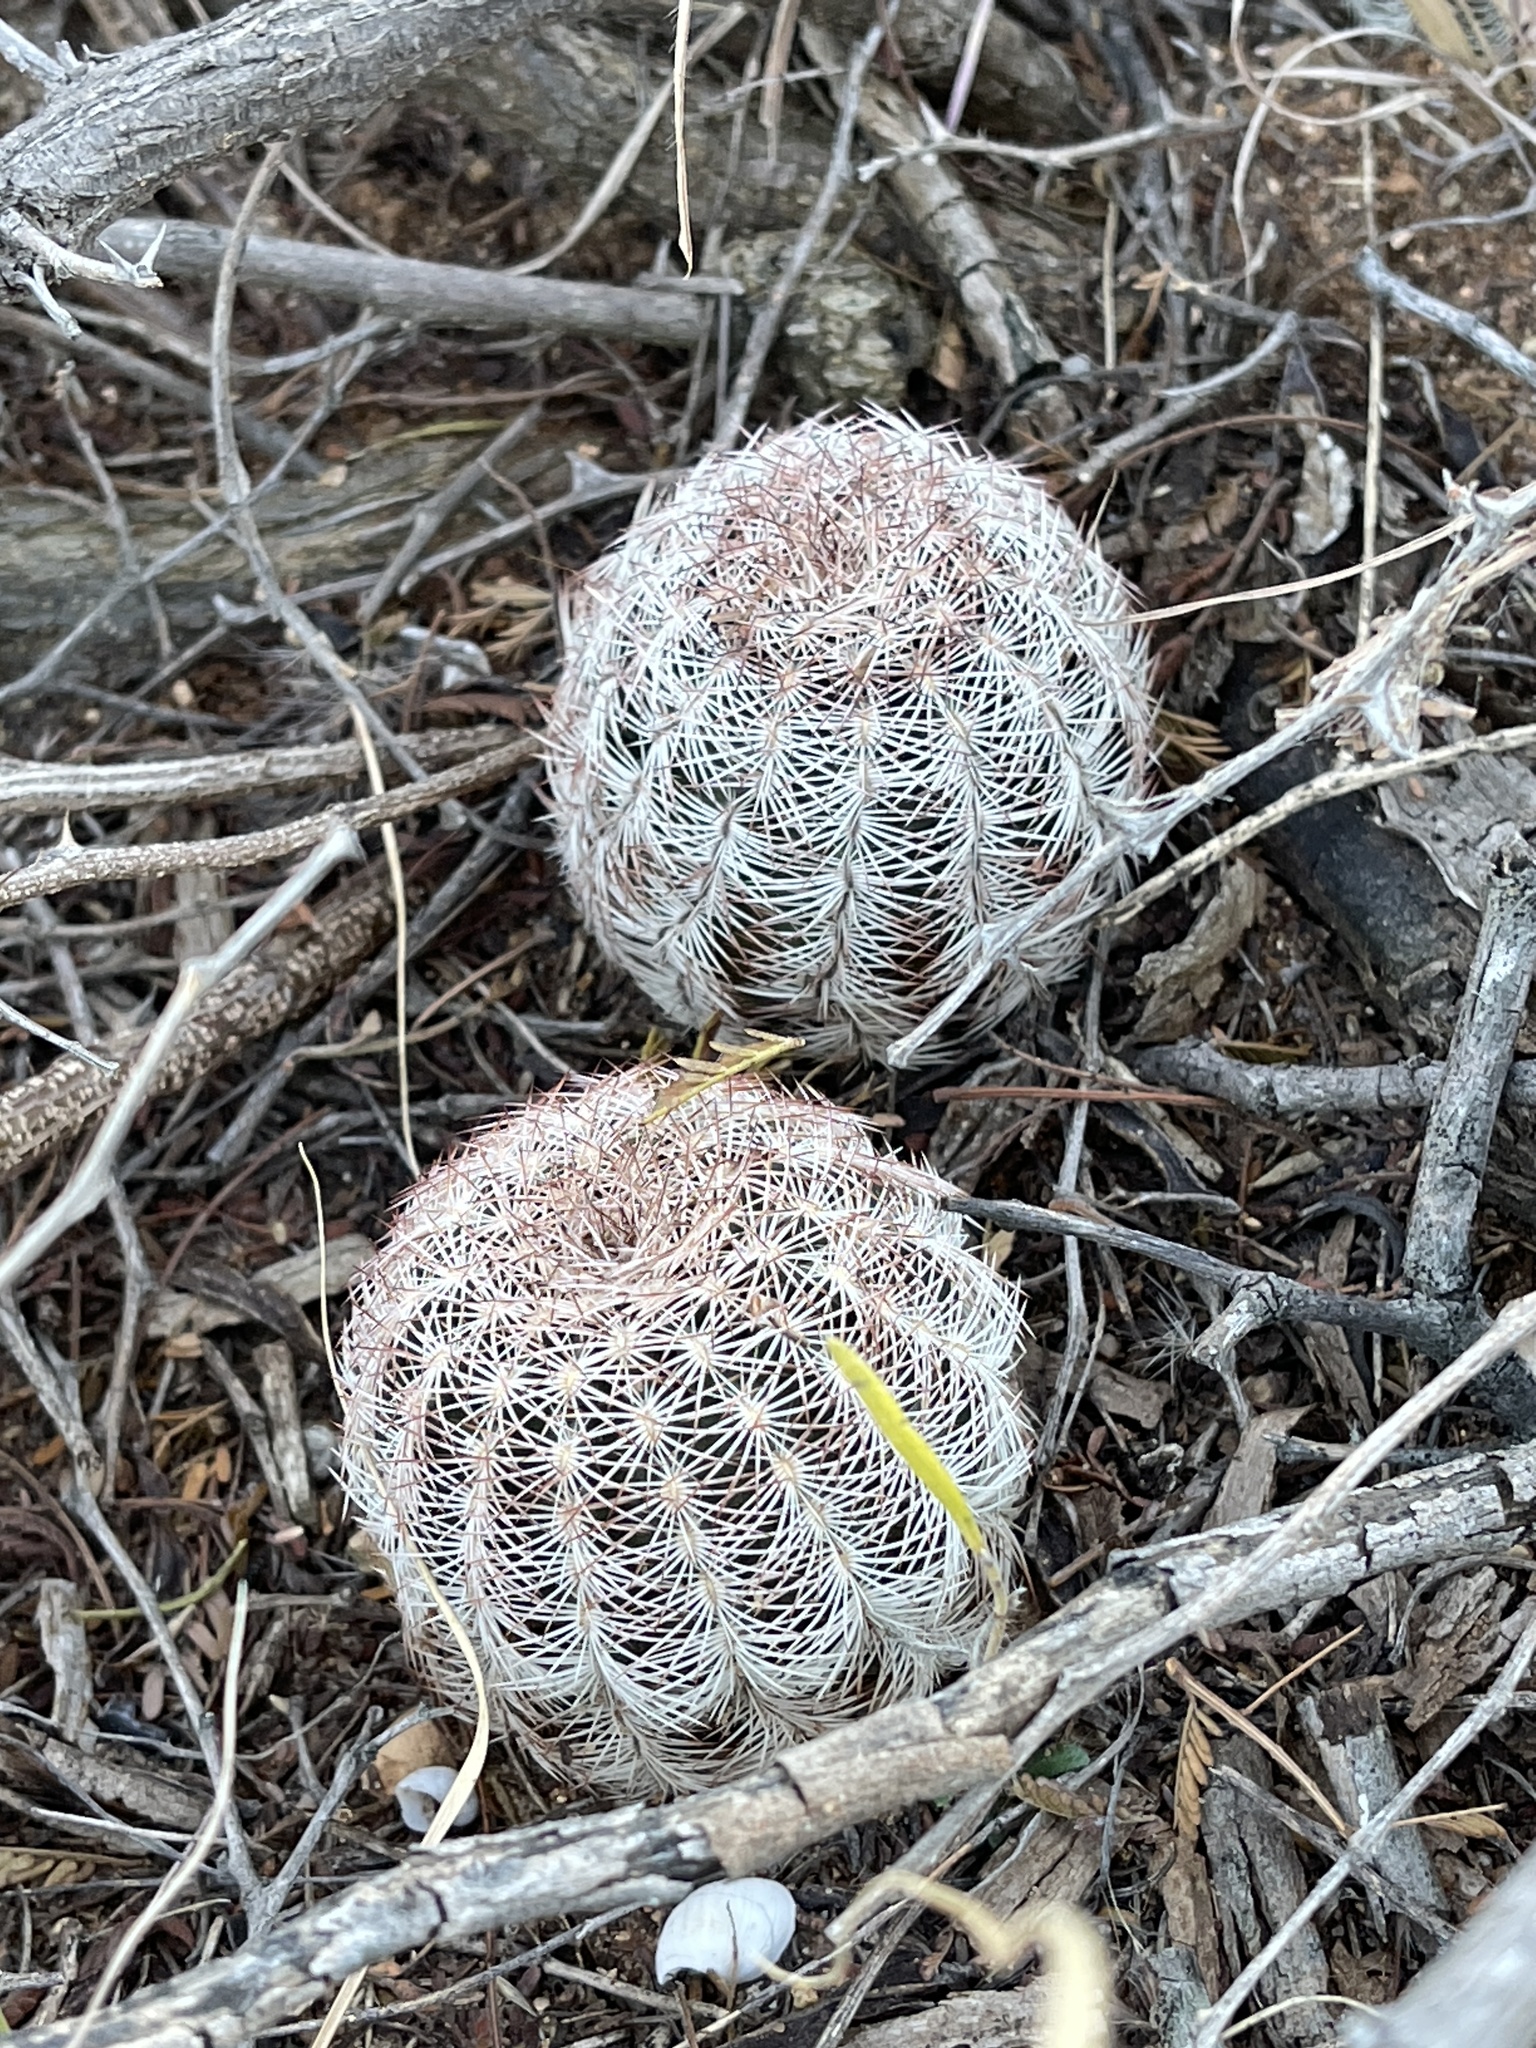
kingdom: Plantae
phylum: Tracheophyta
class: Magnoliopsida
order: Caryophyllales
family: Cactaceae
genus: Echinocereus
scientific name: Echinocereus reichenbachii
